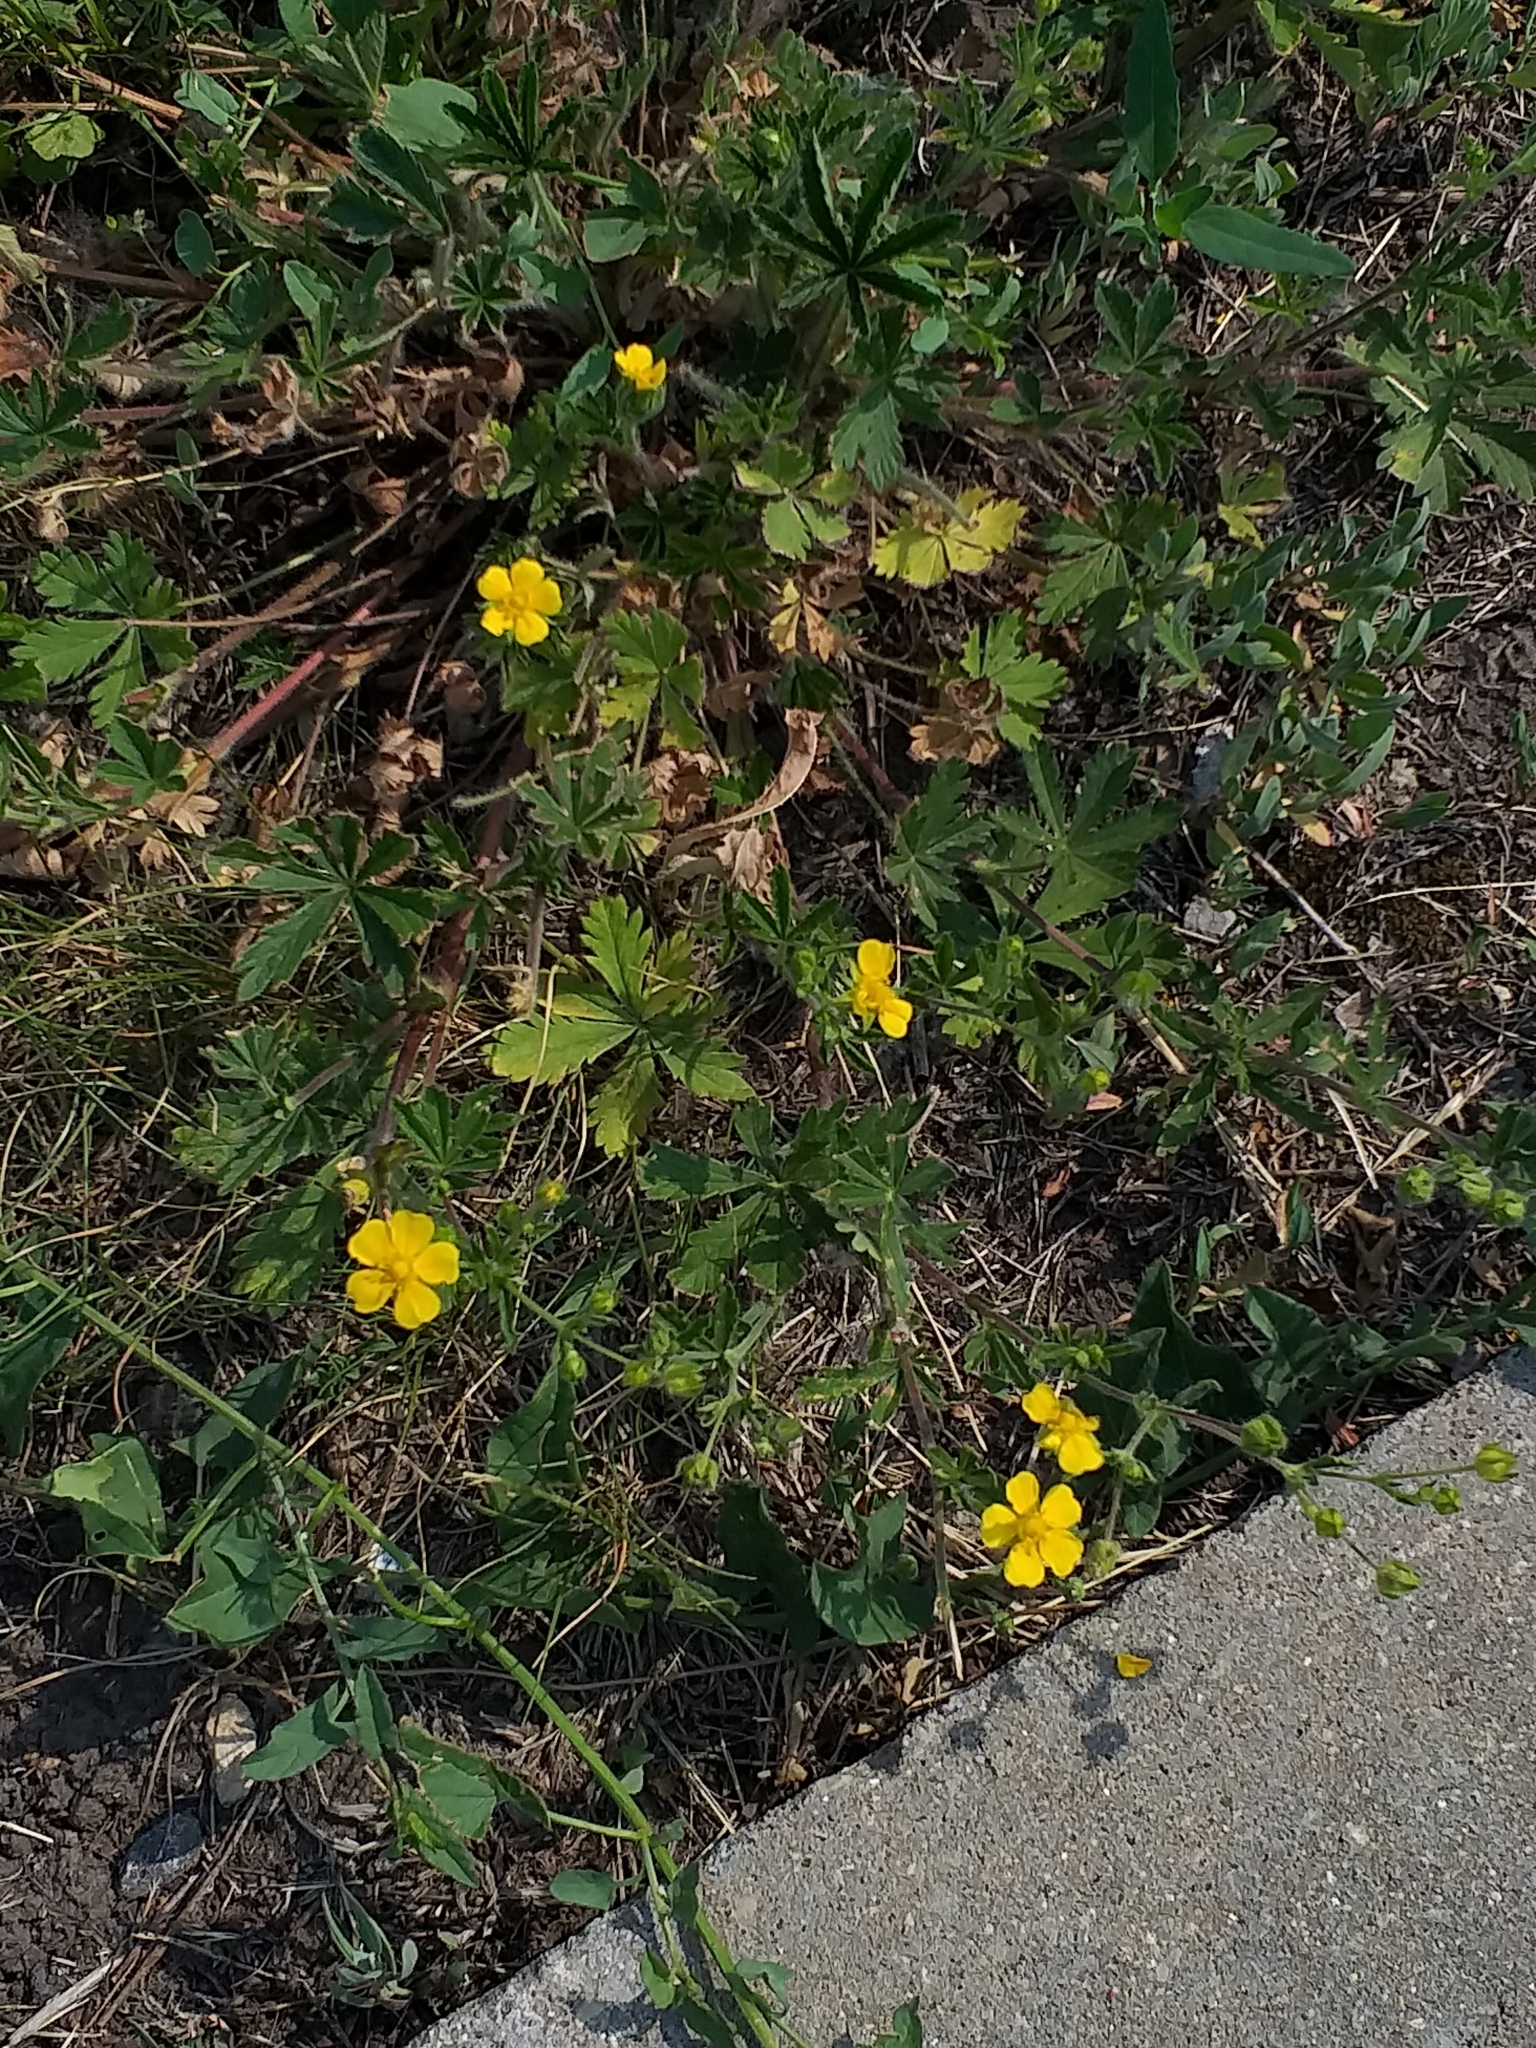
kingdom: Plantae
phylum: Tracheophyta
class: Magnoliopsida
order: Rosales
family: Rosaceae
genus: Potentilla
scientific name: Potentilla thuringiaca
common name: European cinquefoil
